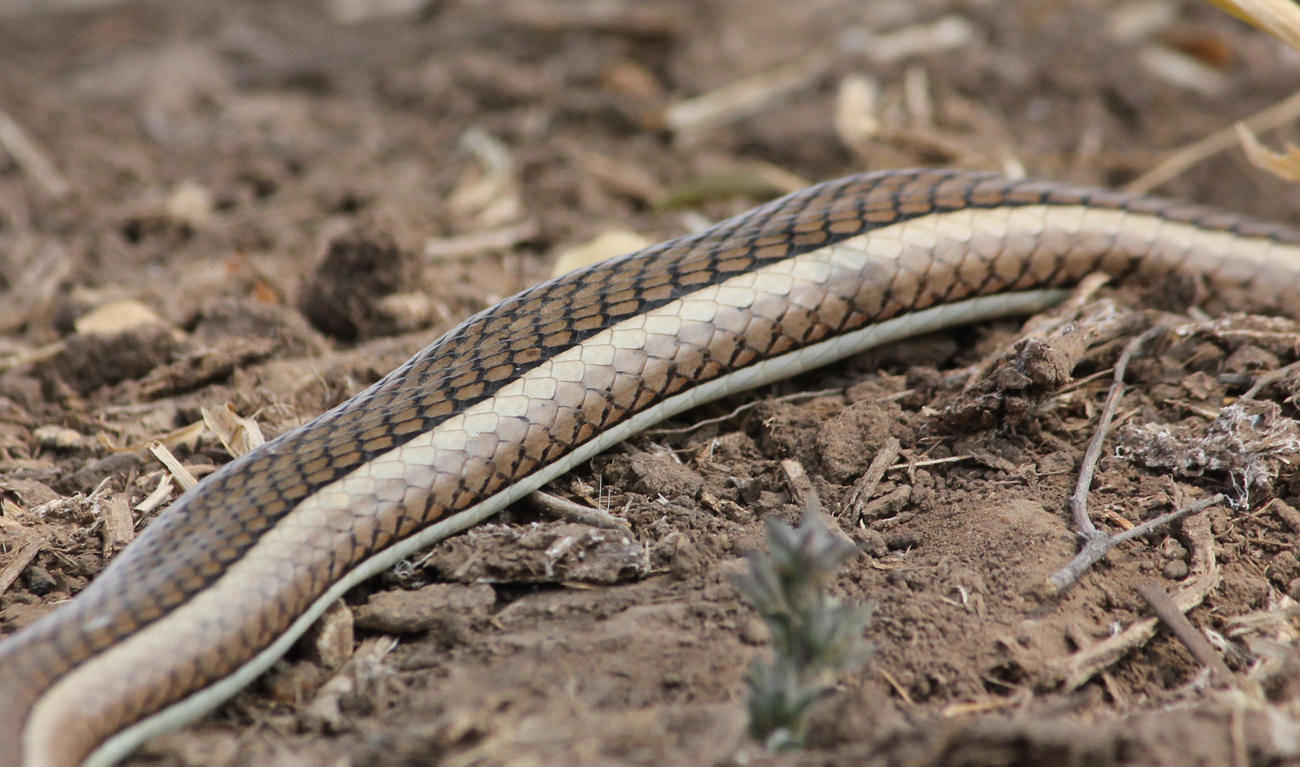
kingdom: Animalia
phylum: Chordata
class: Squamata
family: Psammophiidae
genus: Psammophis
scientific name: Psammophis subtaeniatus
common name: Stripe-bellied sand snake
